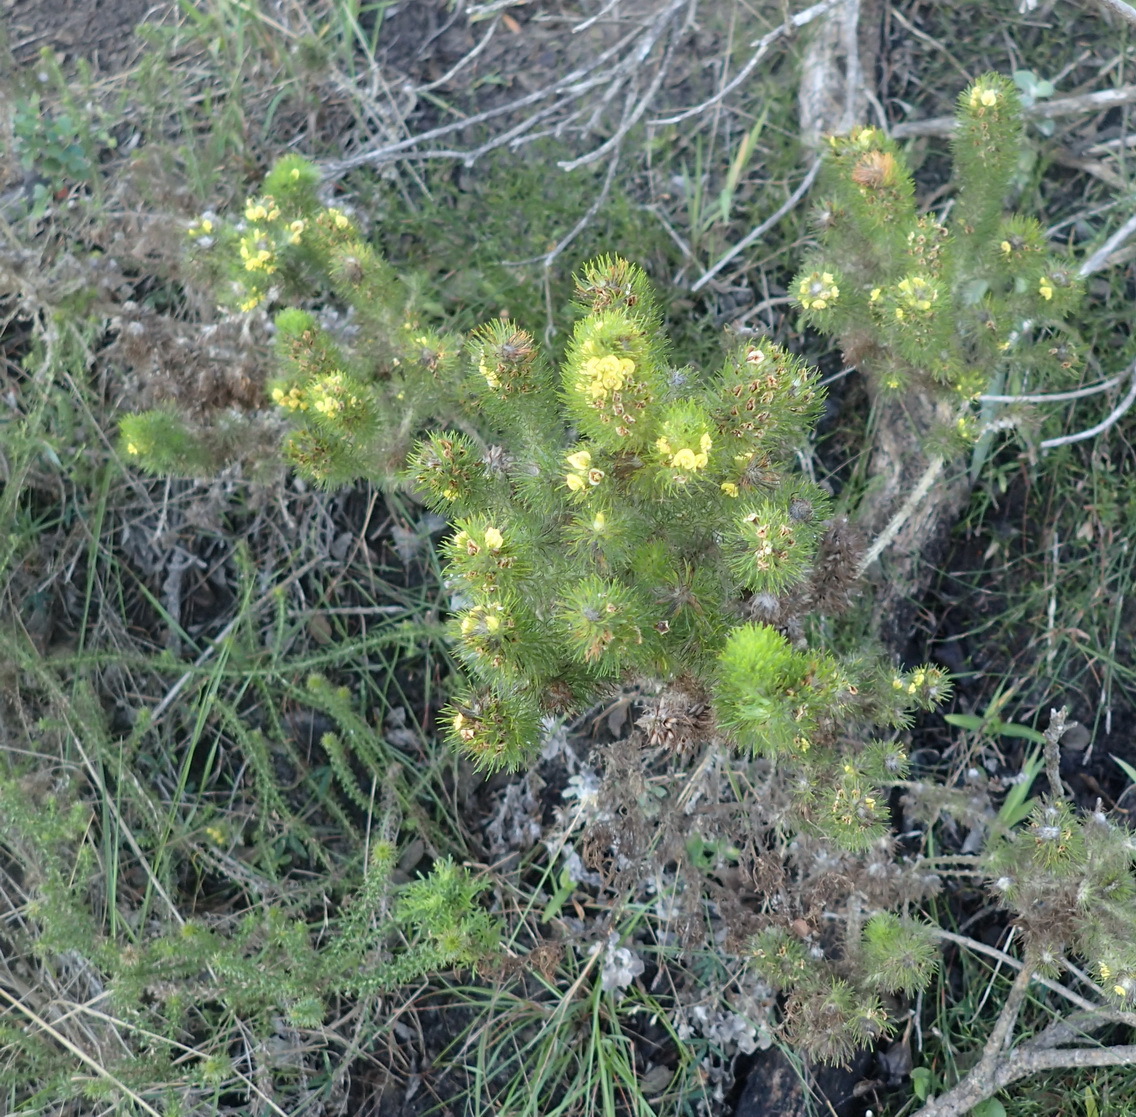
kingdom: Plantae
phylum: Tracheophyta
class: Magnoliopsida
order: Fabales
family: Fabaceae
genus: Aspalathus
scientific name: Aspalathus alopecurus
